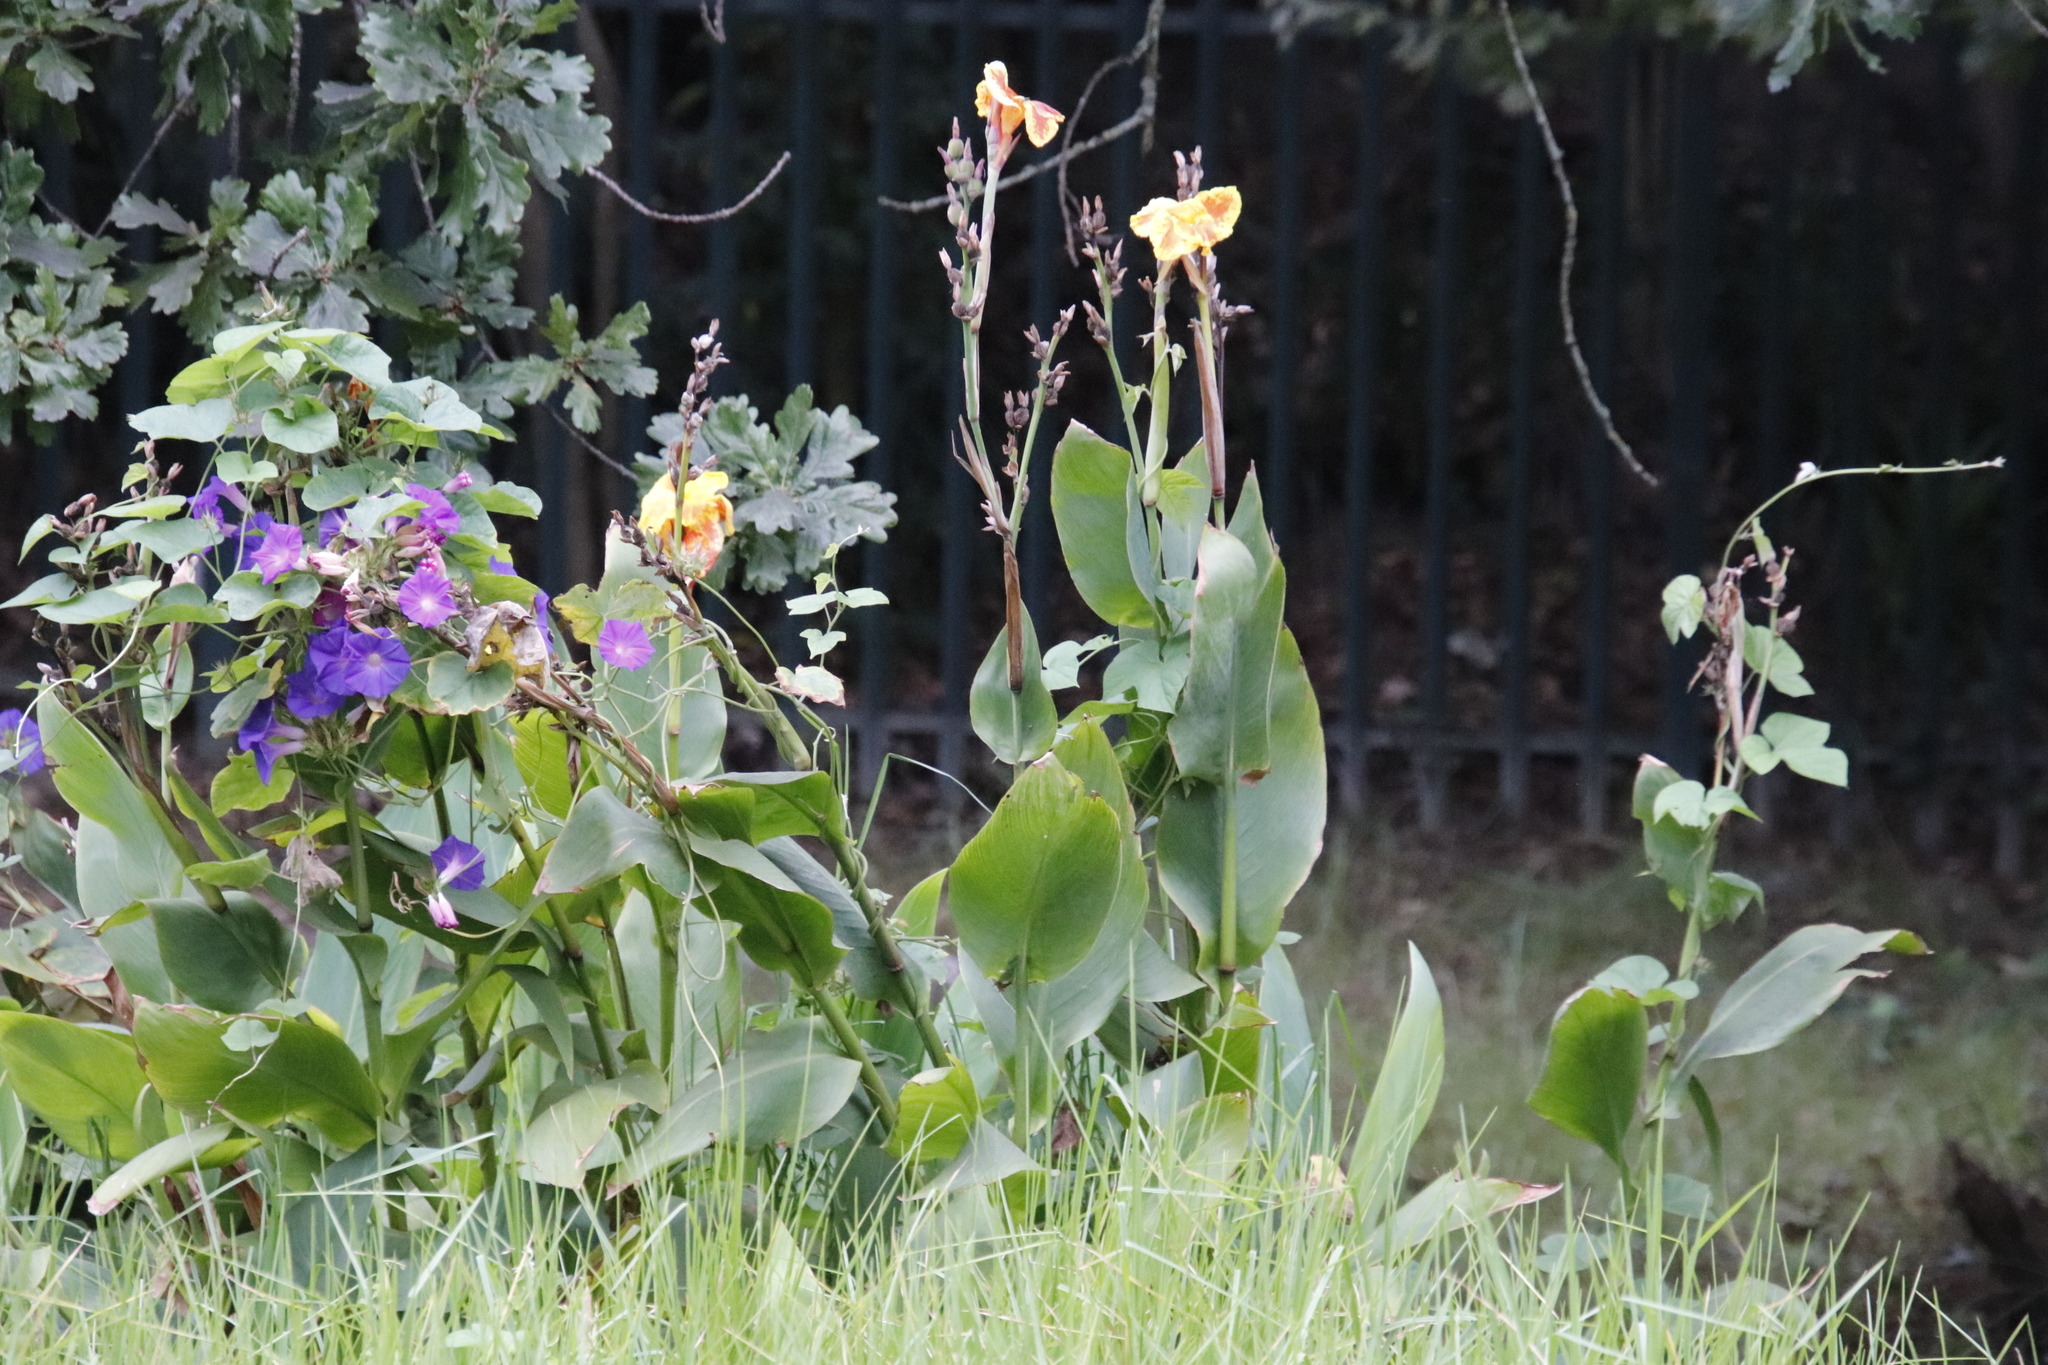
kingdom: Plantae
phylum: Tracheophyta
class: Liliopsida
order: Zingiberales
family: Cannaceae
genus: Canna
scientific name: Canna hybrida
